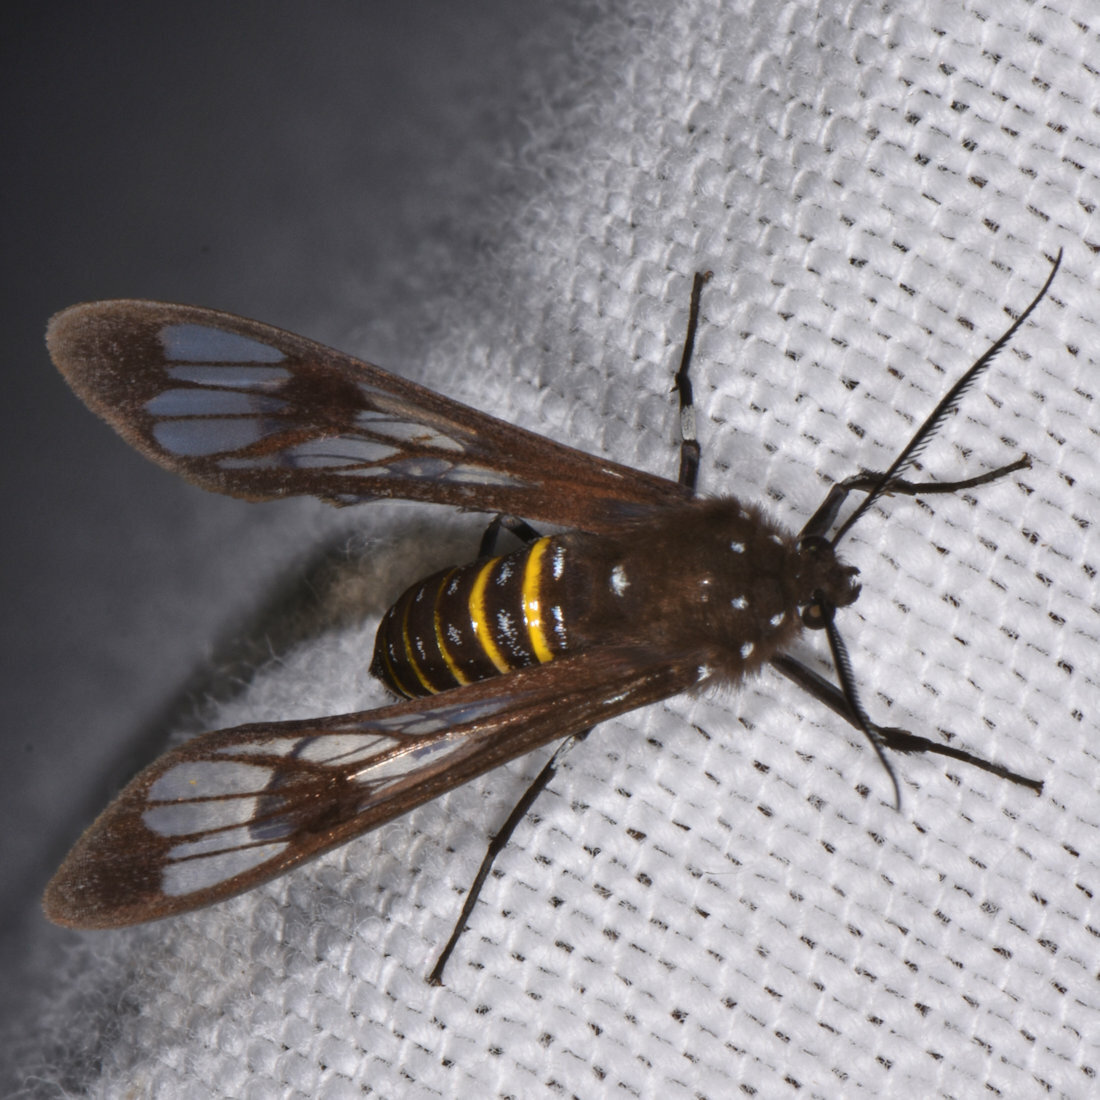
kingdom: Animalia
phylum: Arthropoda
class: Insecta
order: Lepidoptera
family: Erebidae
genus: Phaenarete
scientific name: Phaenarete diana
